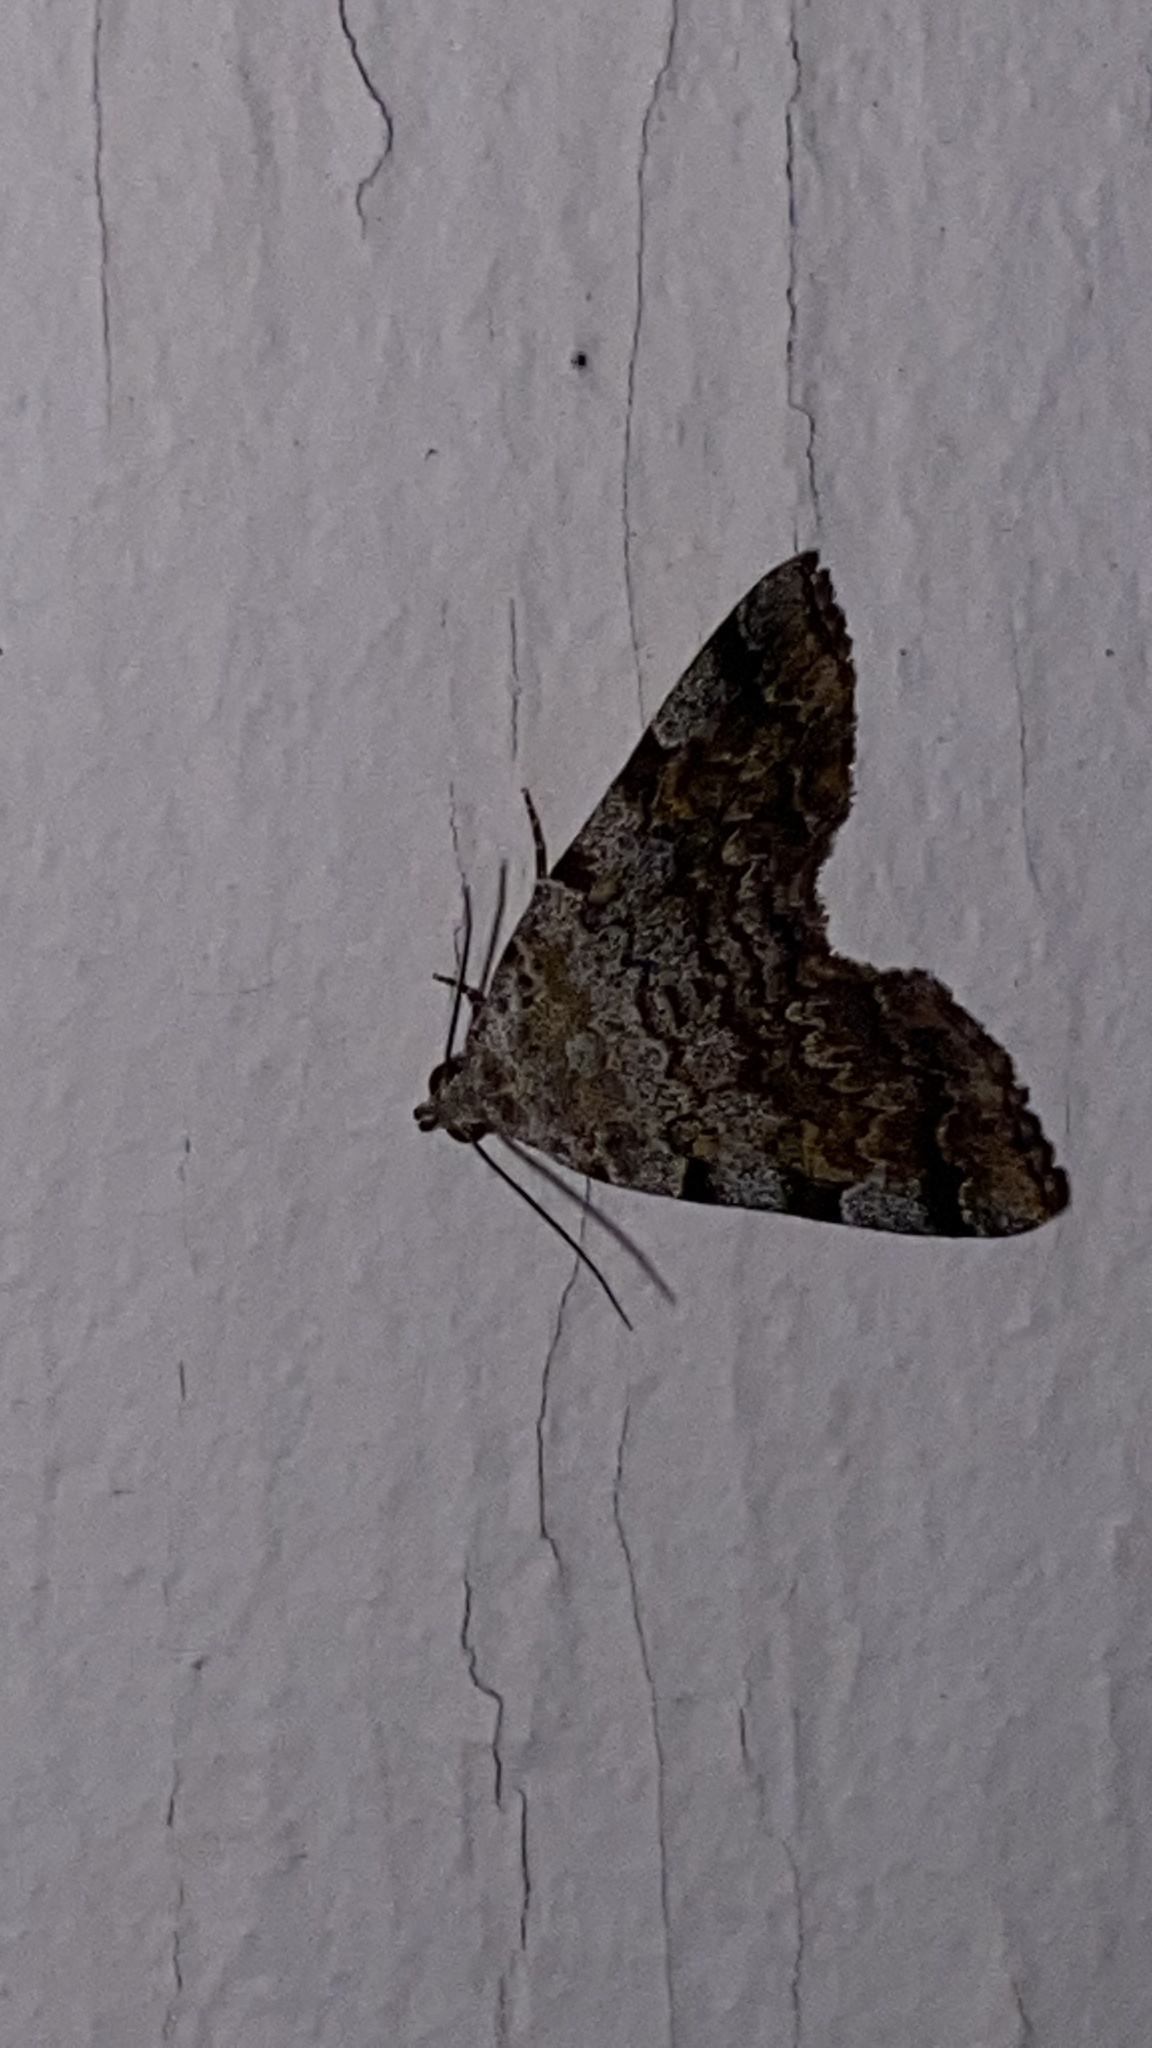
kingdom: Animalia
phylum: Arthropoda
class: Insecta
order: Lepidoptera
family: Erebidae
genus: Idia
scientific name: Idia americalis
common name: American idia moth
